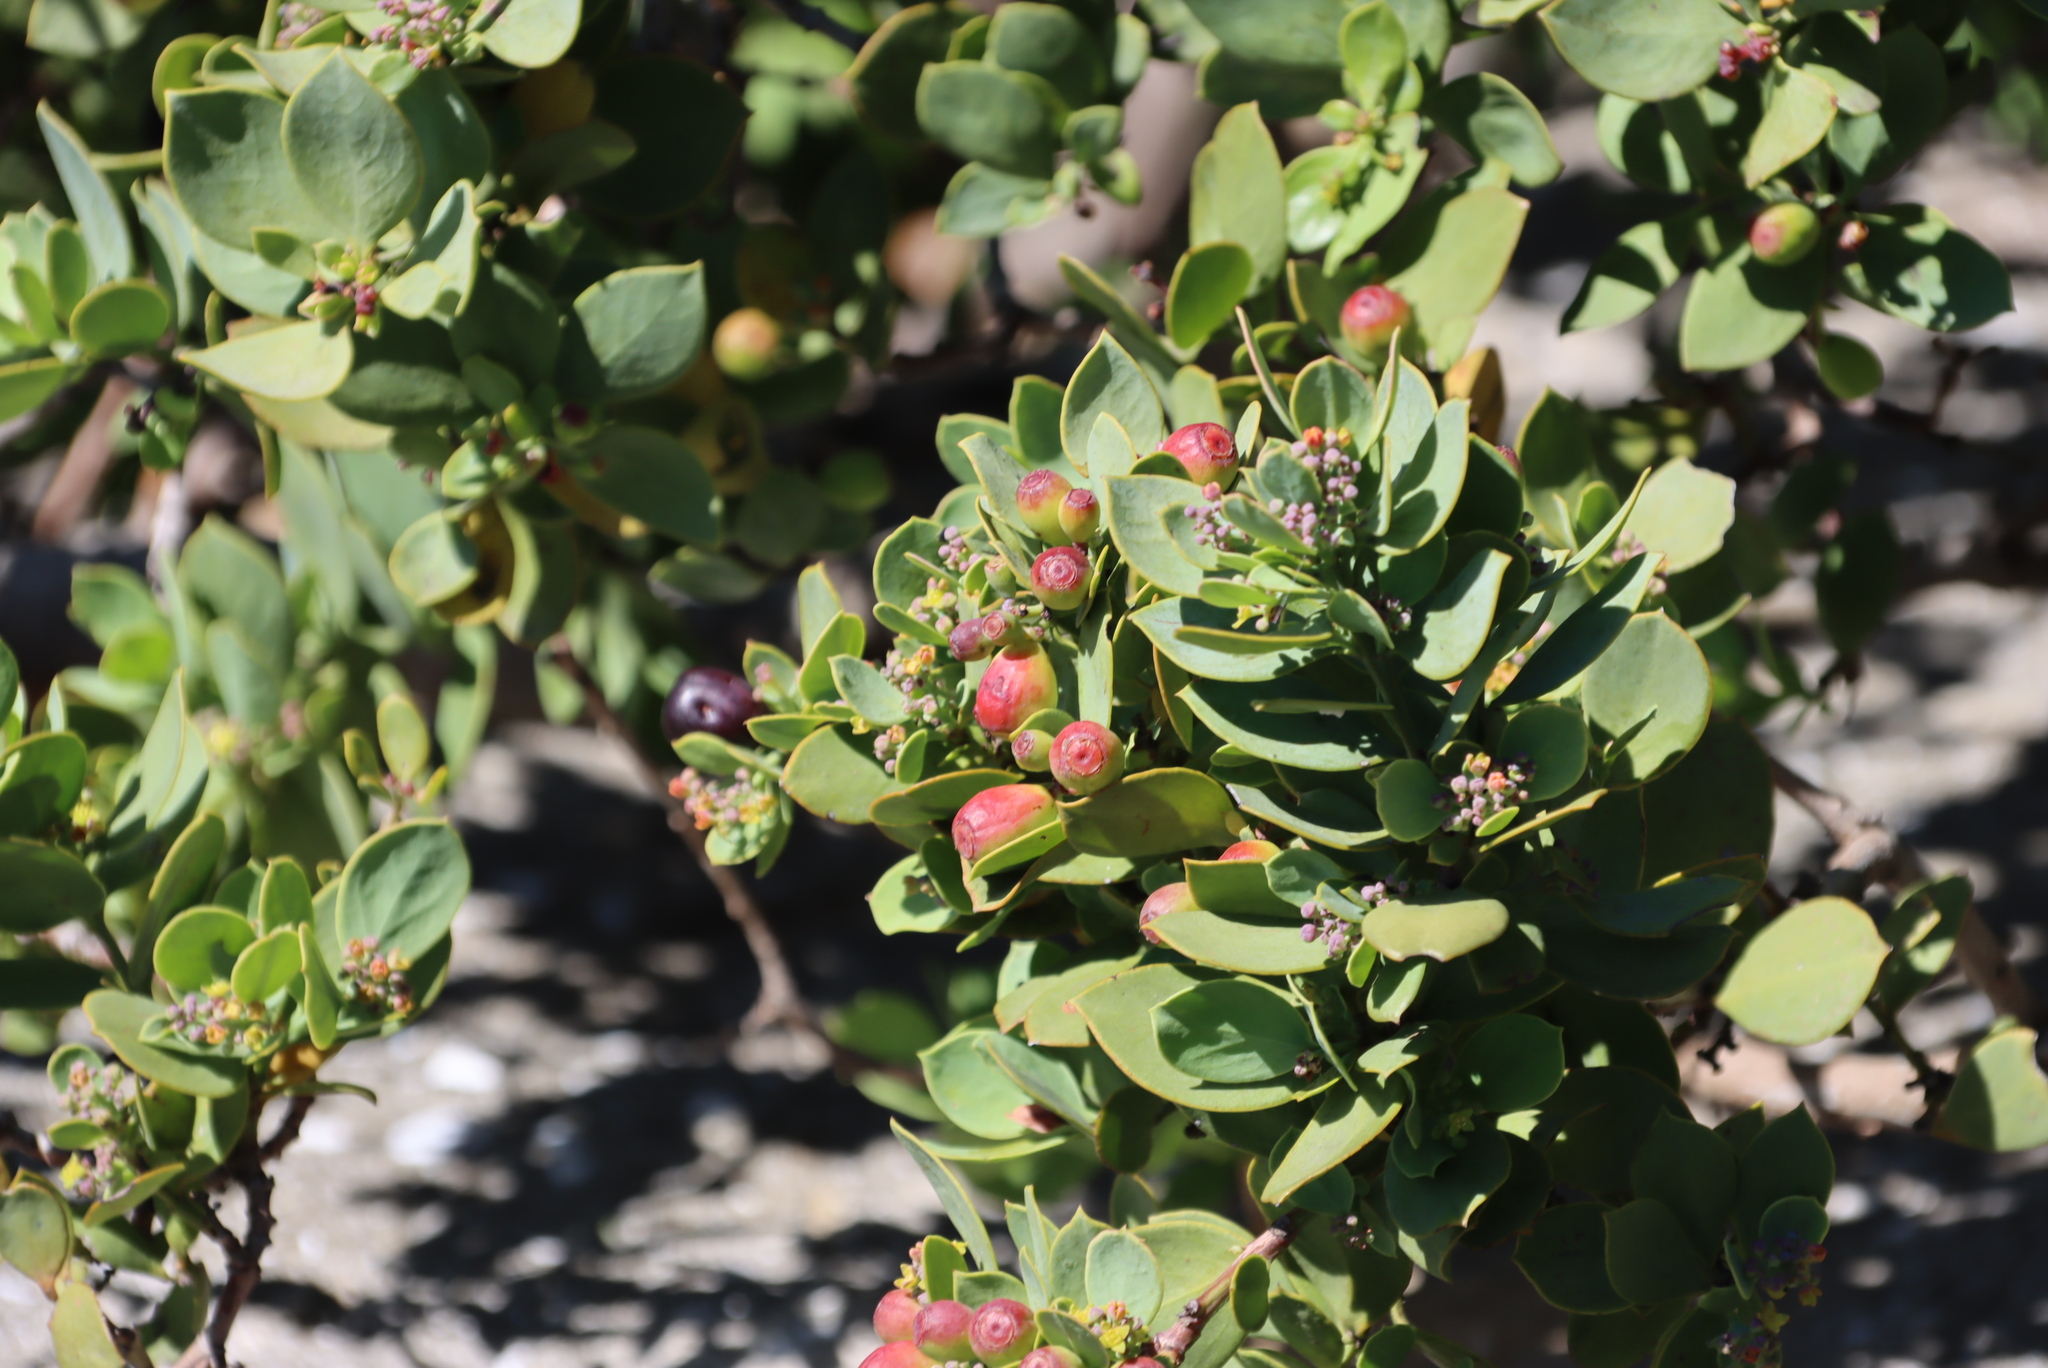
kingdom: Plantae
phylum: Tracheophyta
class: Magnoliopsida
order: Santalales
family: Santalaceae
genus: Osyris
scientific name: Osyris compressa
